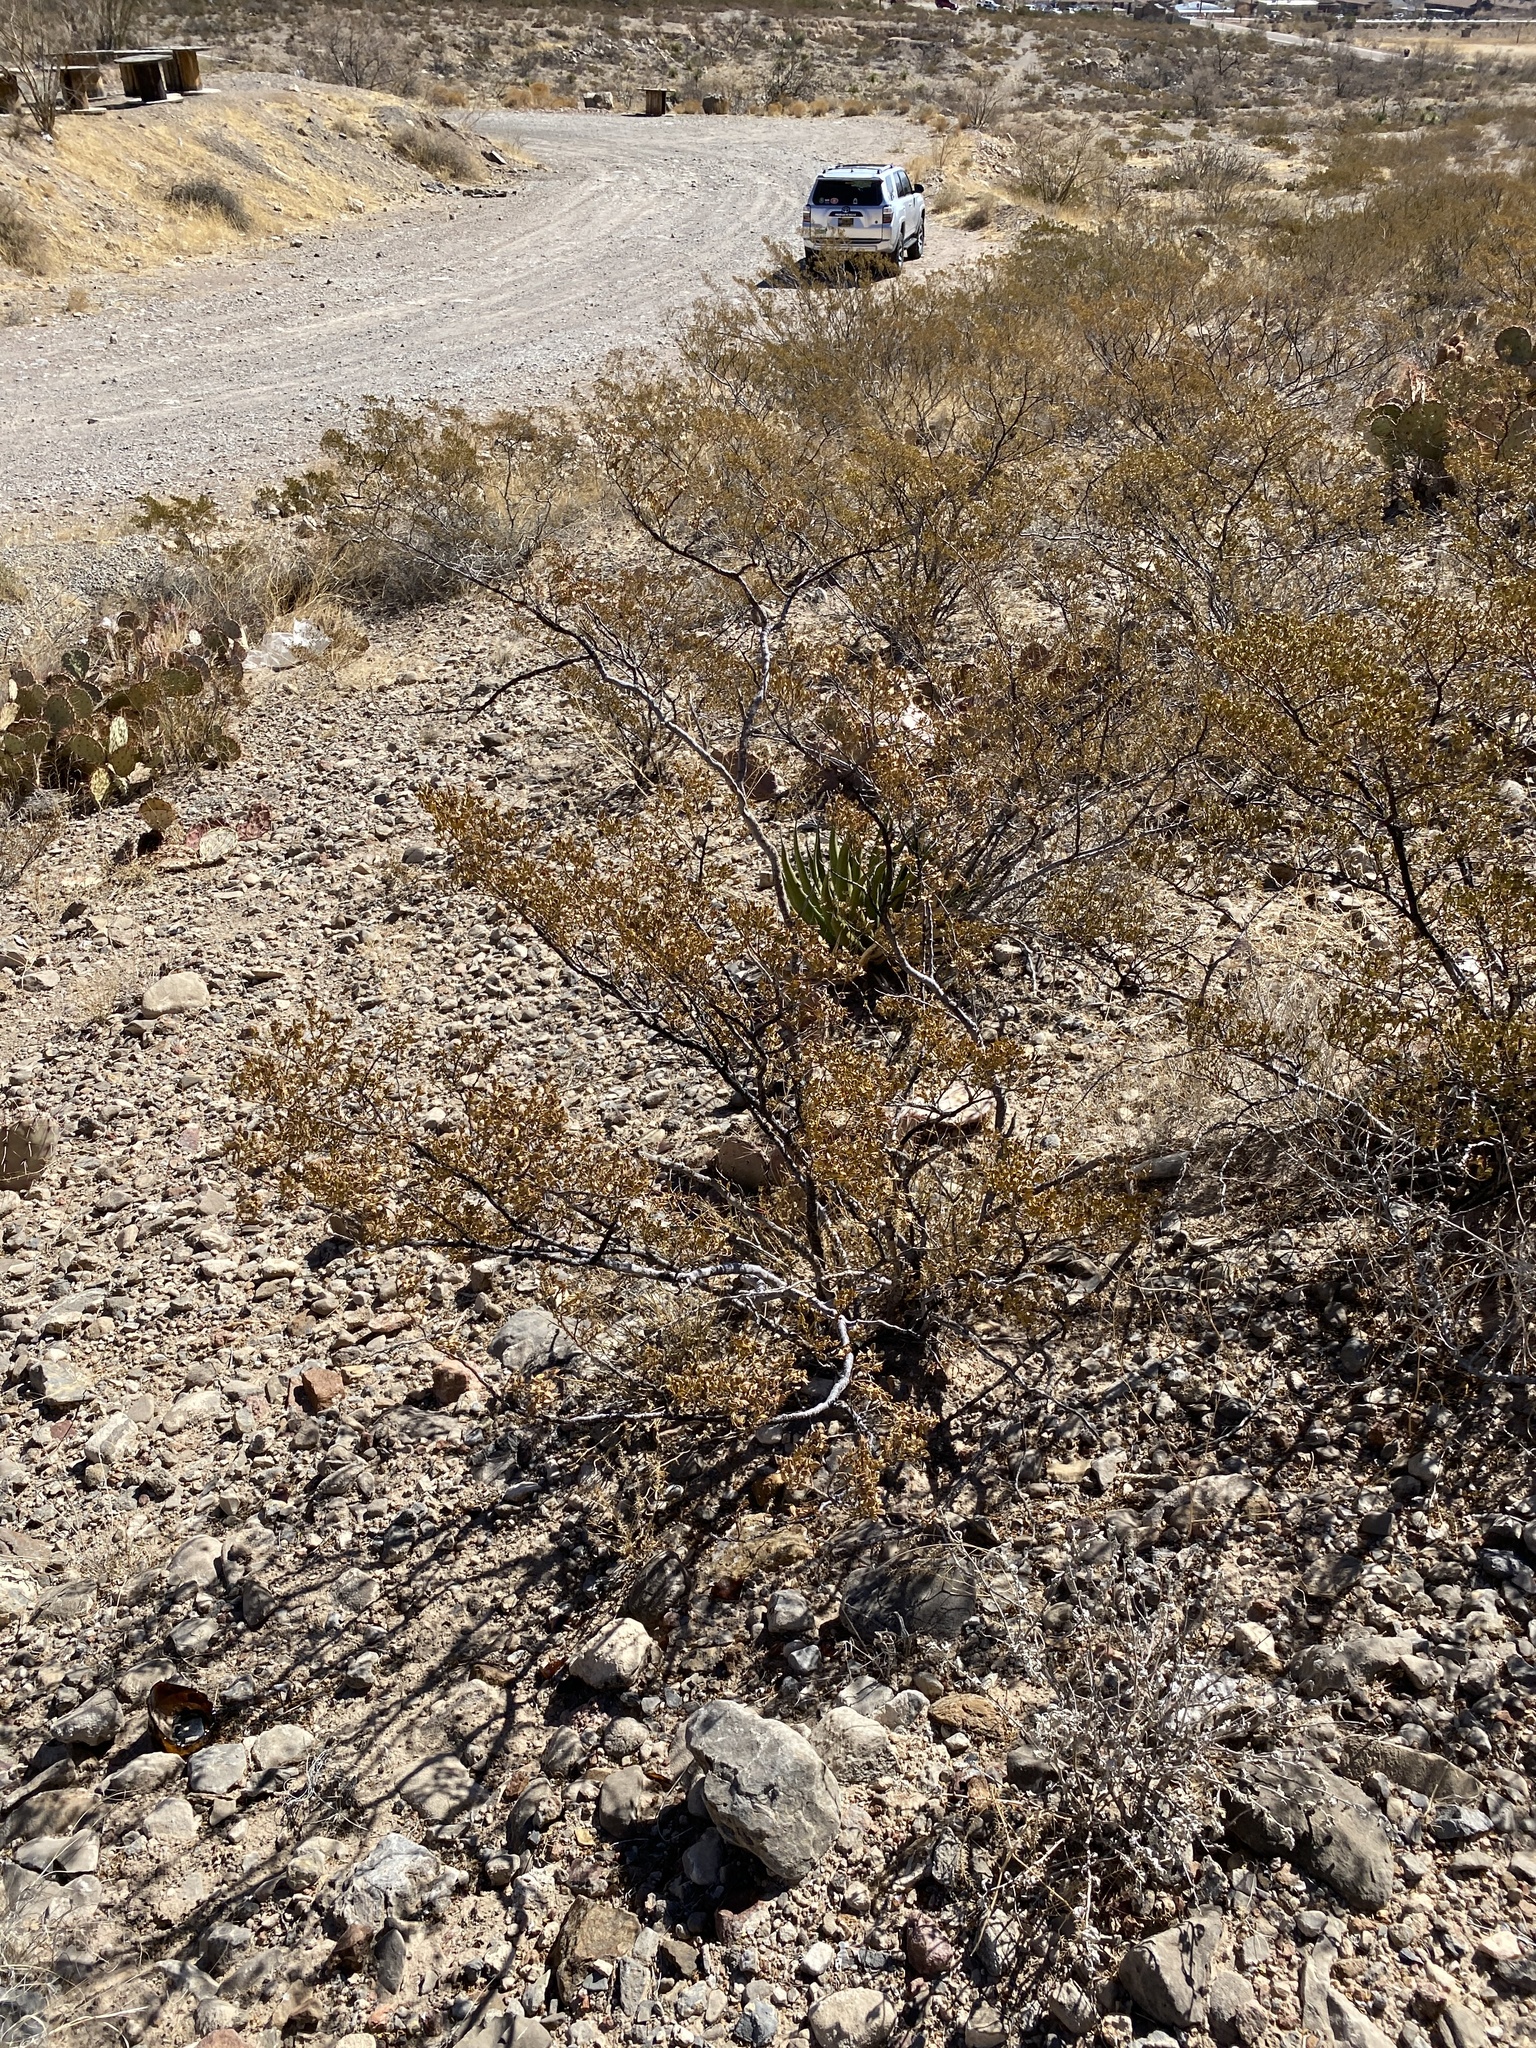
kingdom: Plantae
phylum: Tracheophyta
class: Magnoliopsida
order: Zygophyllales
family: Zygophyllaceae
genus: Larrea
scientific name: Larrea tridentata
